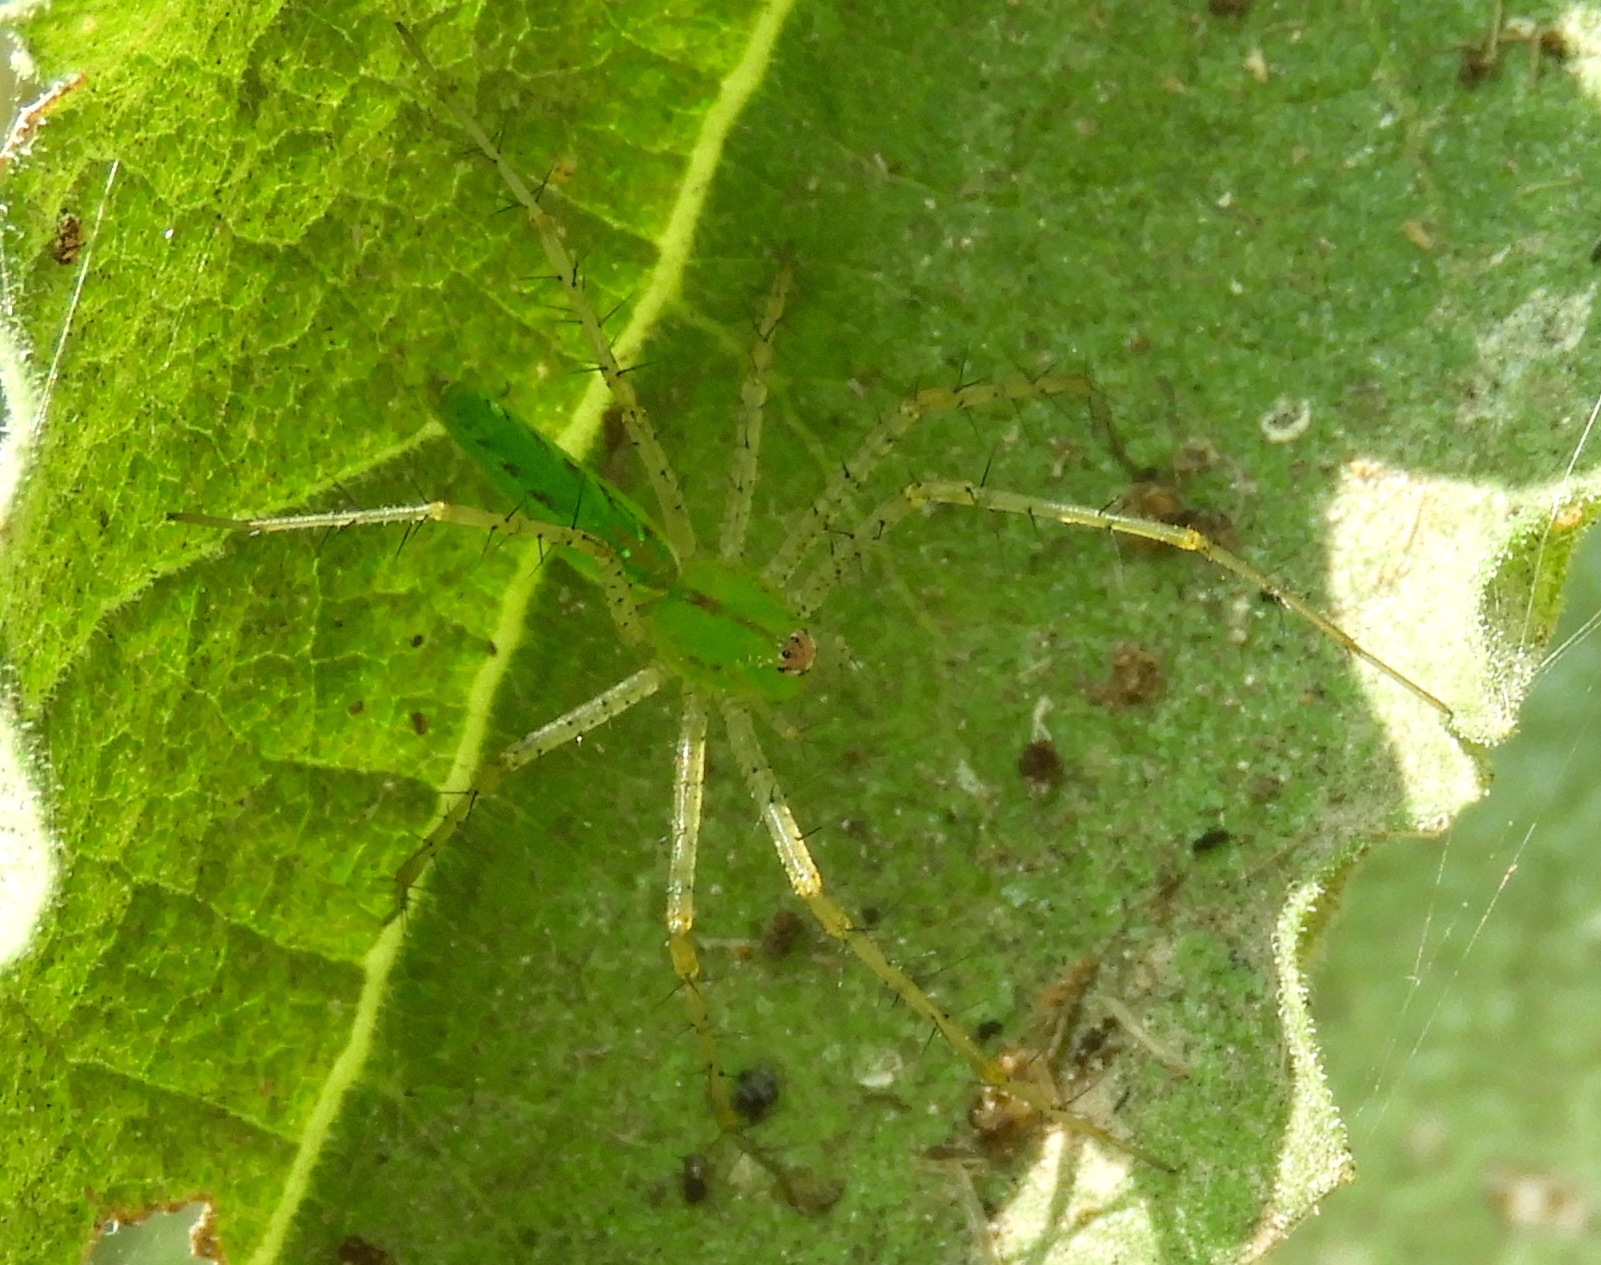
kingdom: Animalia
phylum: Arthropoda
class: Arachnida
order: Araneae
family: Oxyopidae
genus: Peucetia
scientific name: Peucetia
